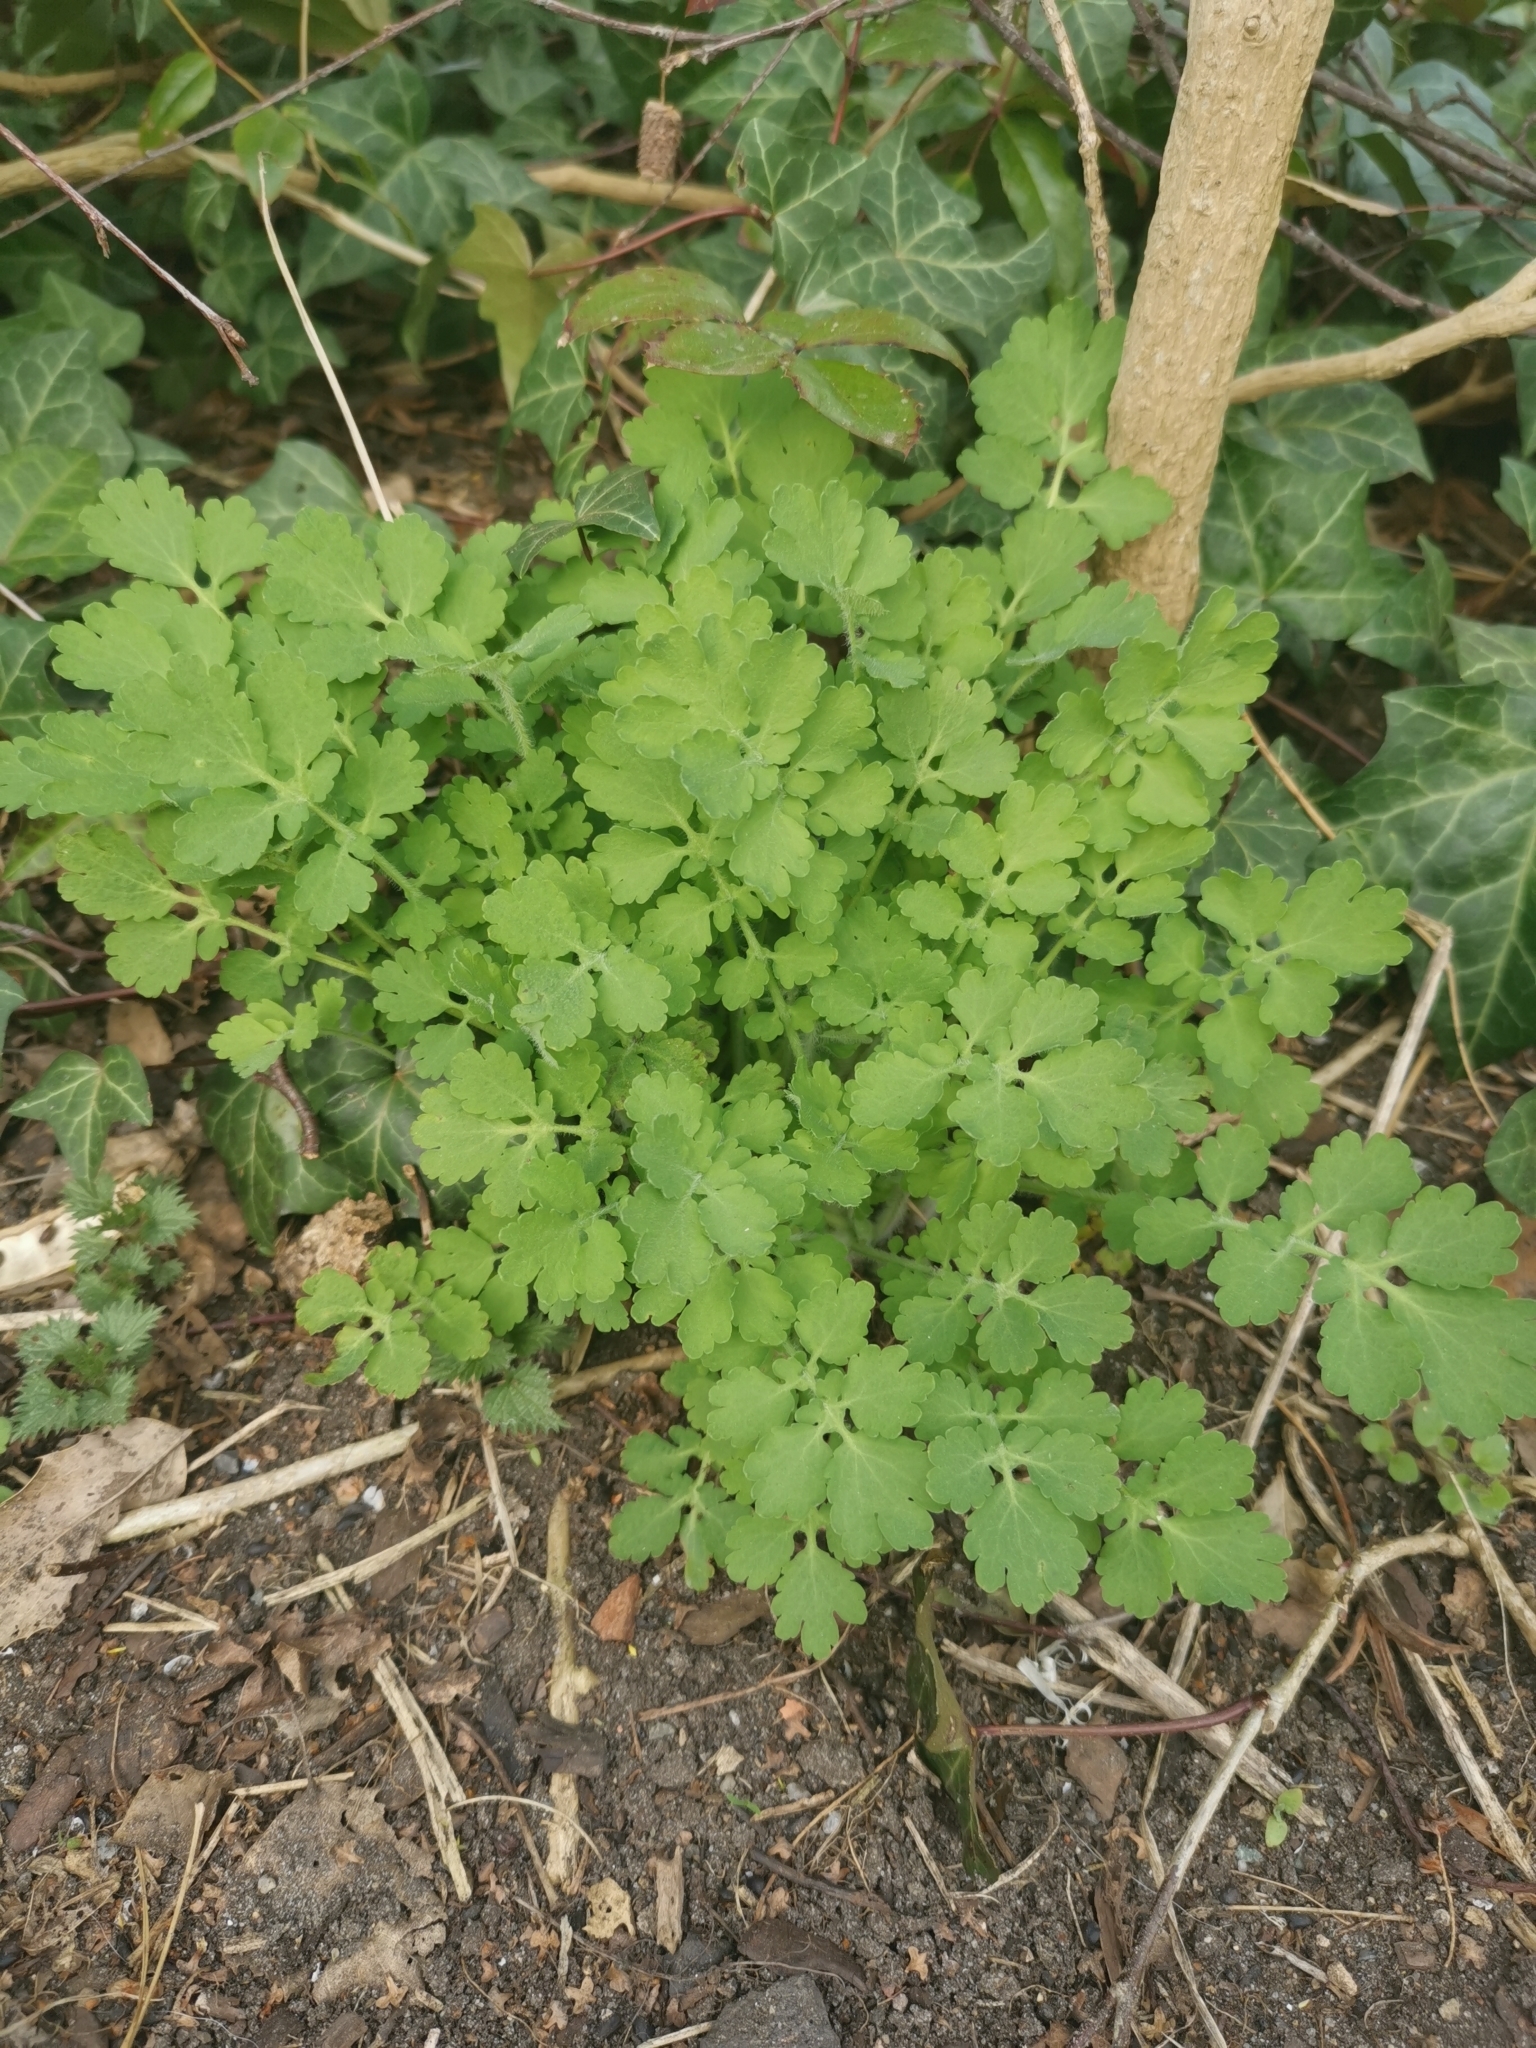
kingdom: Plantae
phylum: Tracheophyta
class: Magnoliopsida
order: Ranunculales
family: Papaveraceae
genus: Chelidonium
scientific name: Chelidonium majus
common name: Greater celandine
